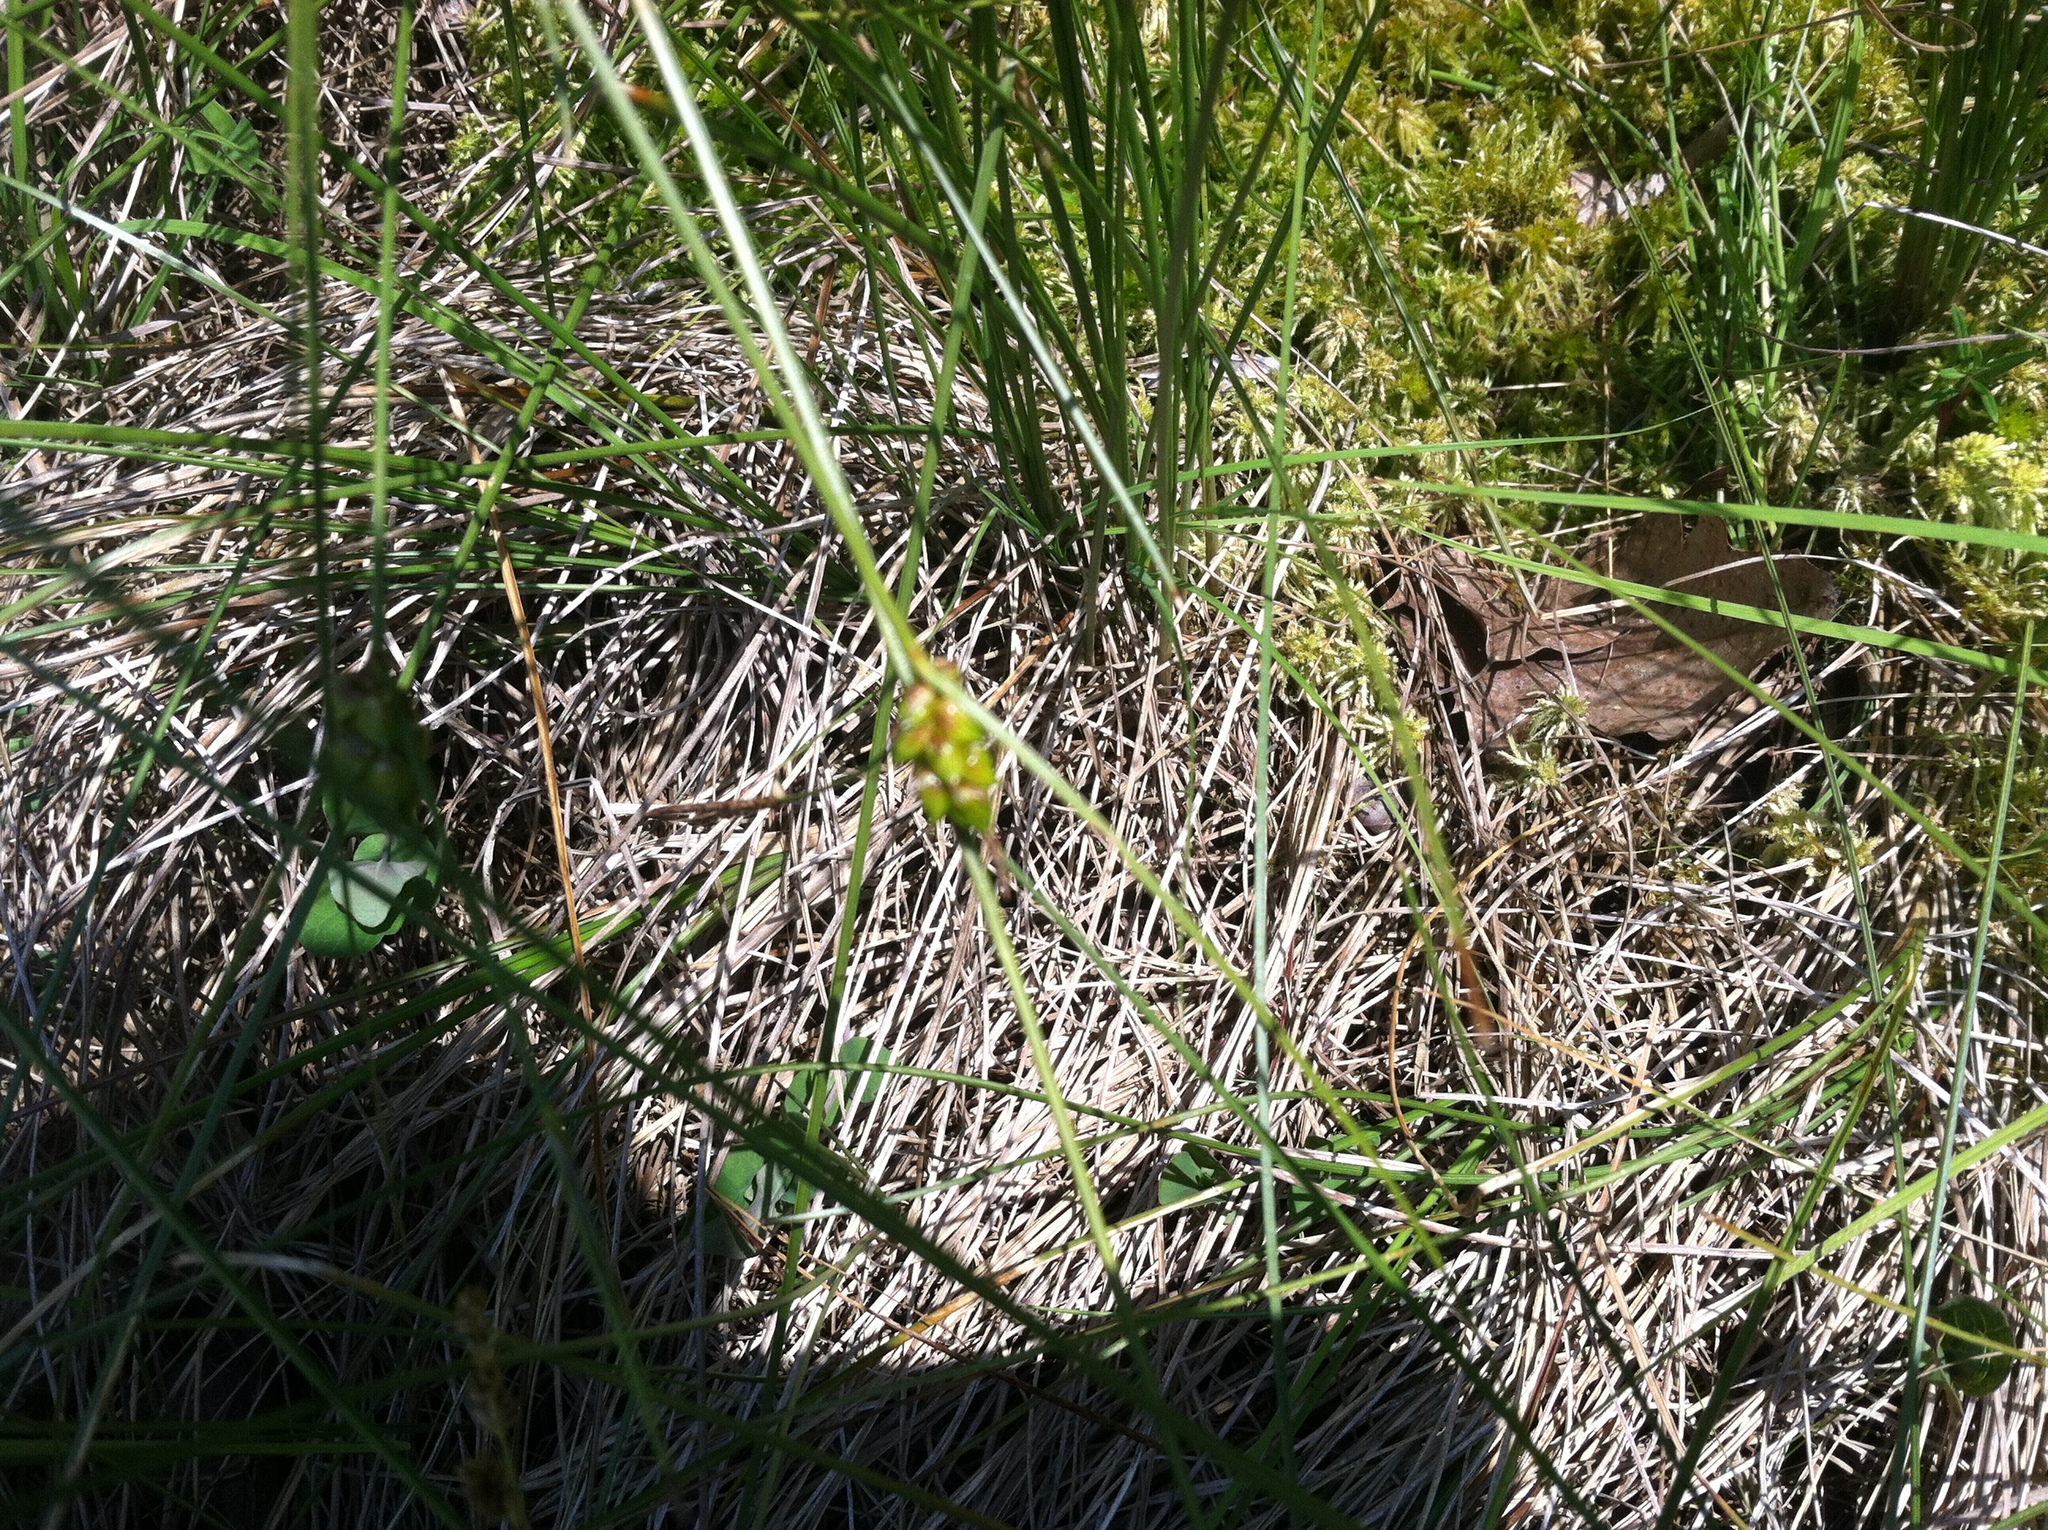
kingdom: Plantae
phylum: Tracheophyta
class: Liliopsida
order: Poales
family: Cyperaceae
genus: Carex
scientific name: Carex oligosperma
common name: Few-seed sedge
